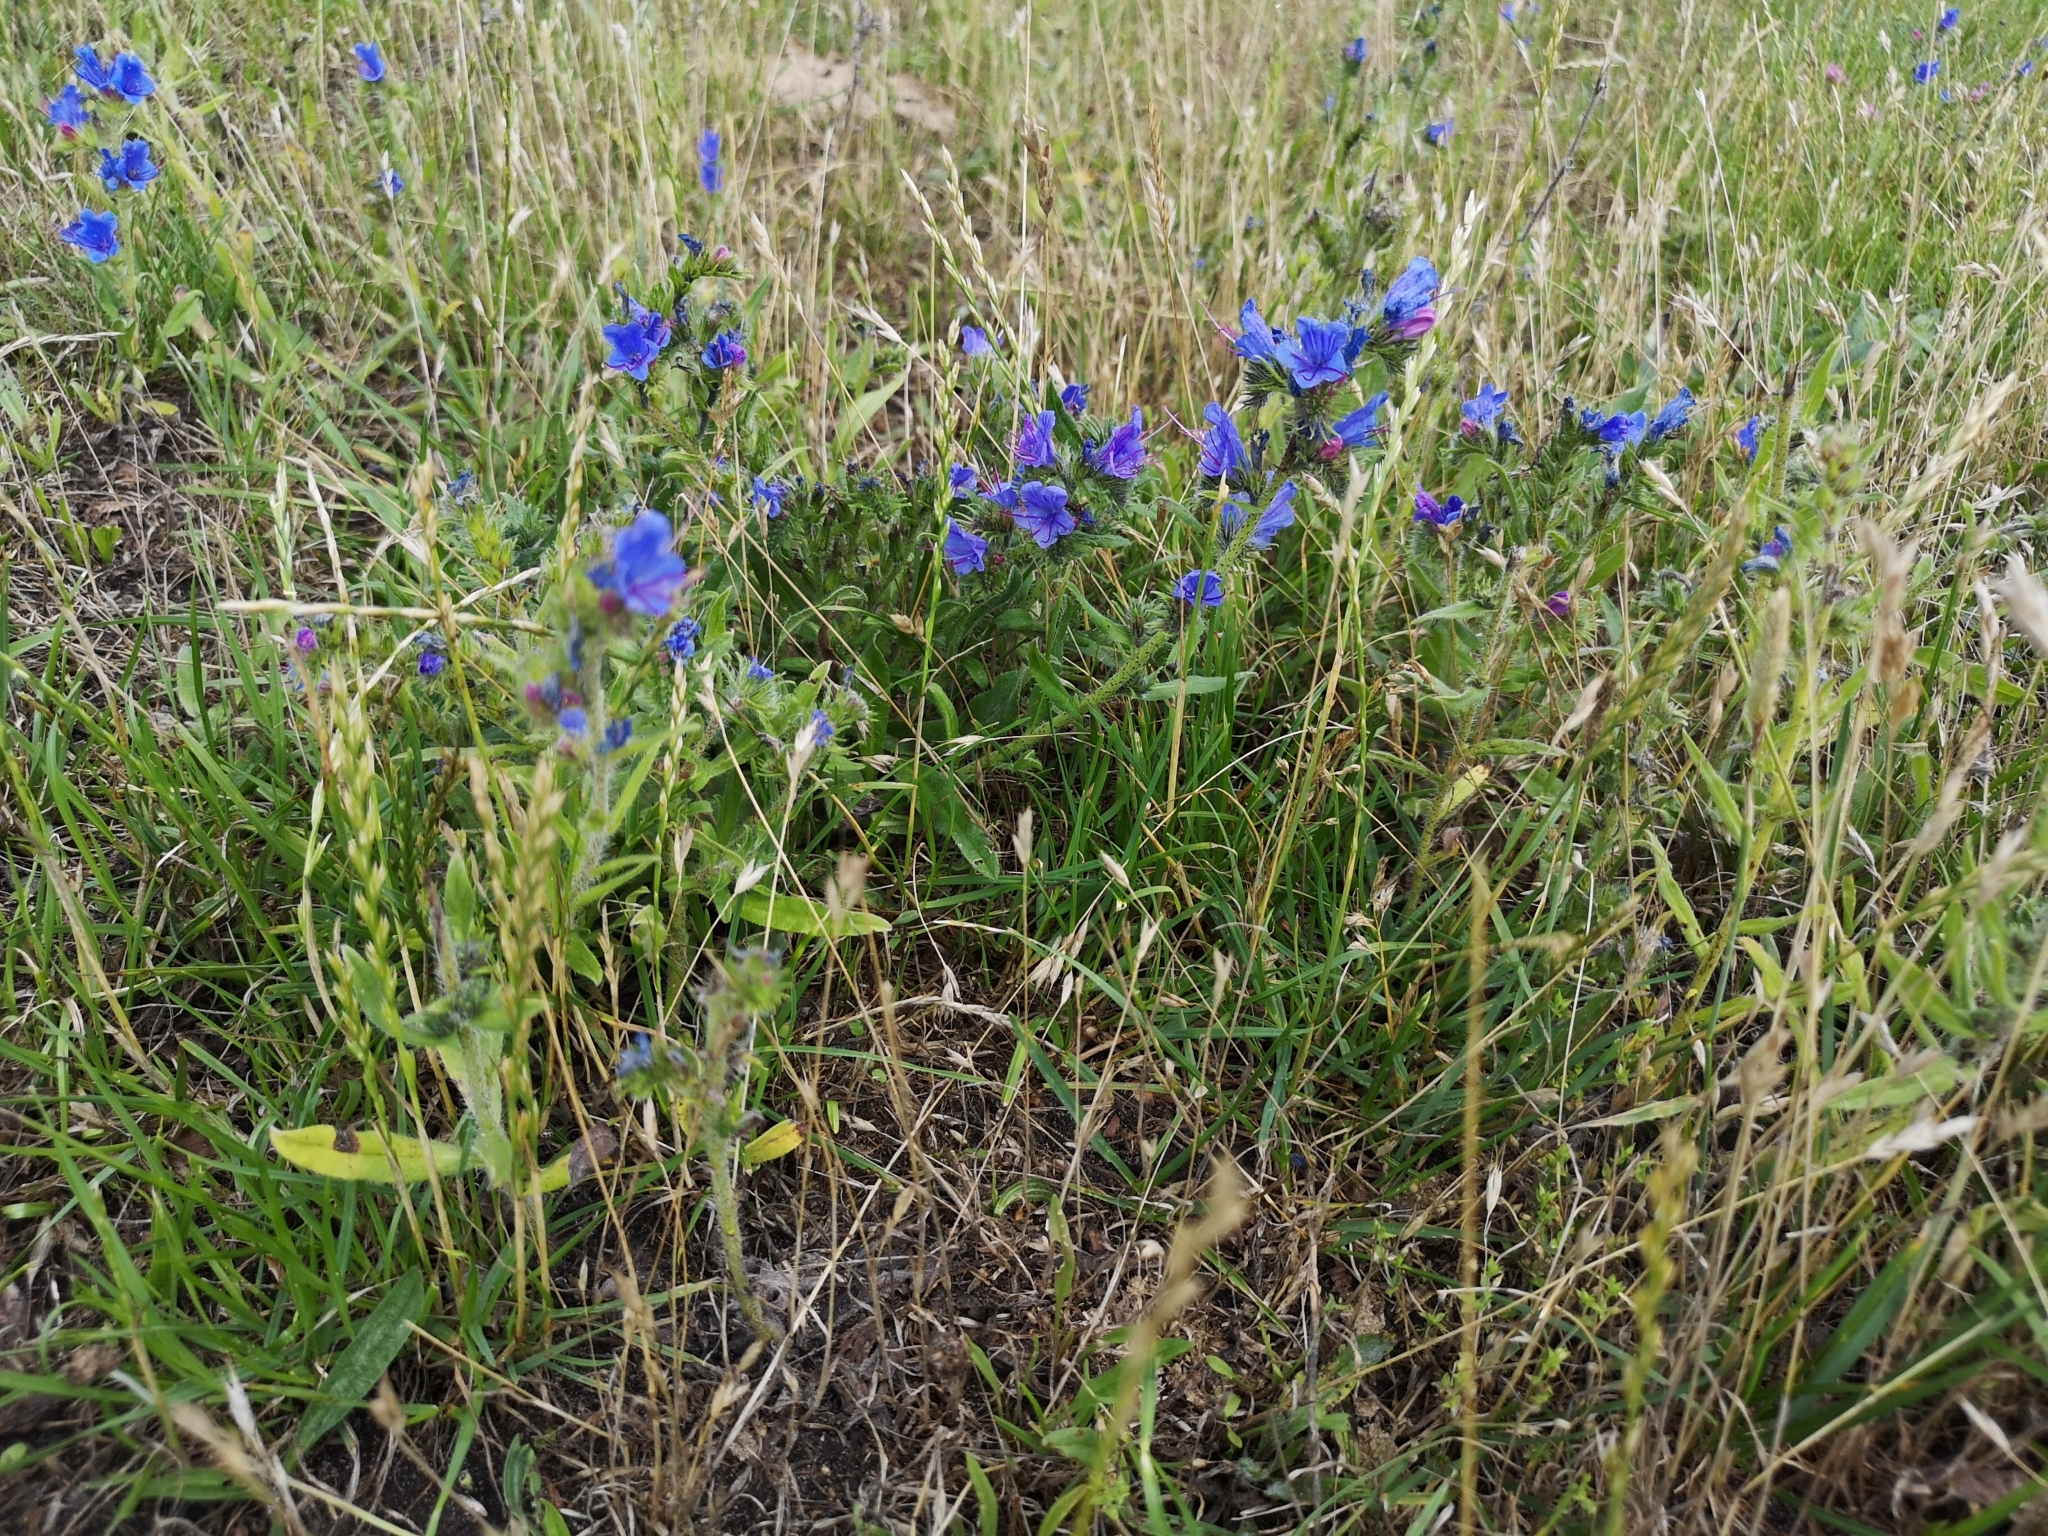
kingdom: Plantae
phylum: Tracheophyta
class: Magnoliopsida
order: Boraginales
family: Boraginaceae
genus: Echium
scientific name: Echium vulgare
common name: Common viper's bugloss
